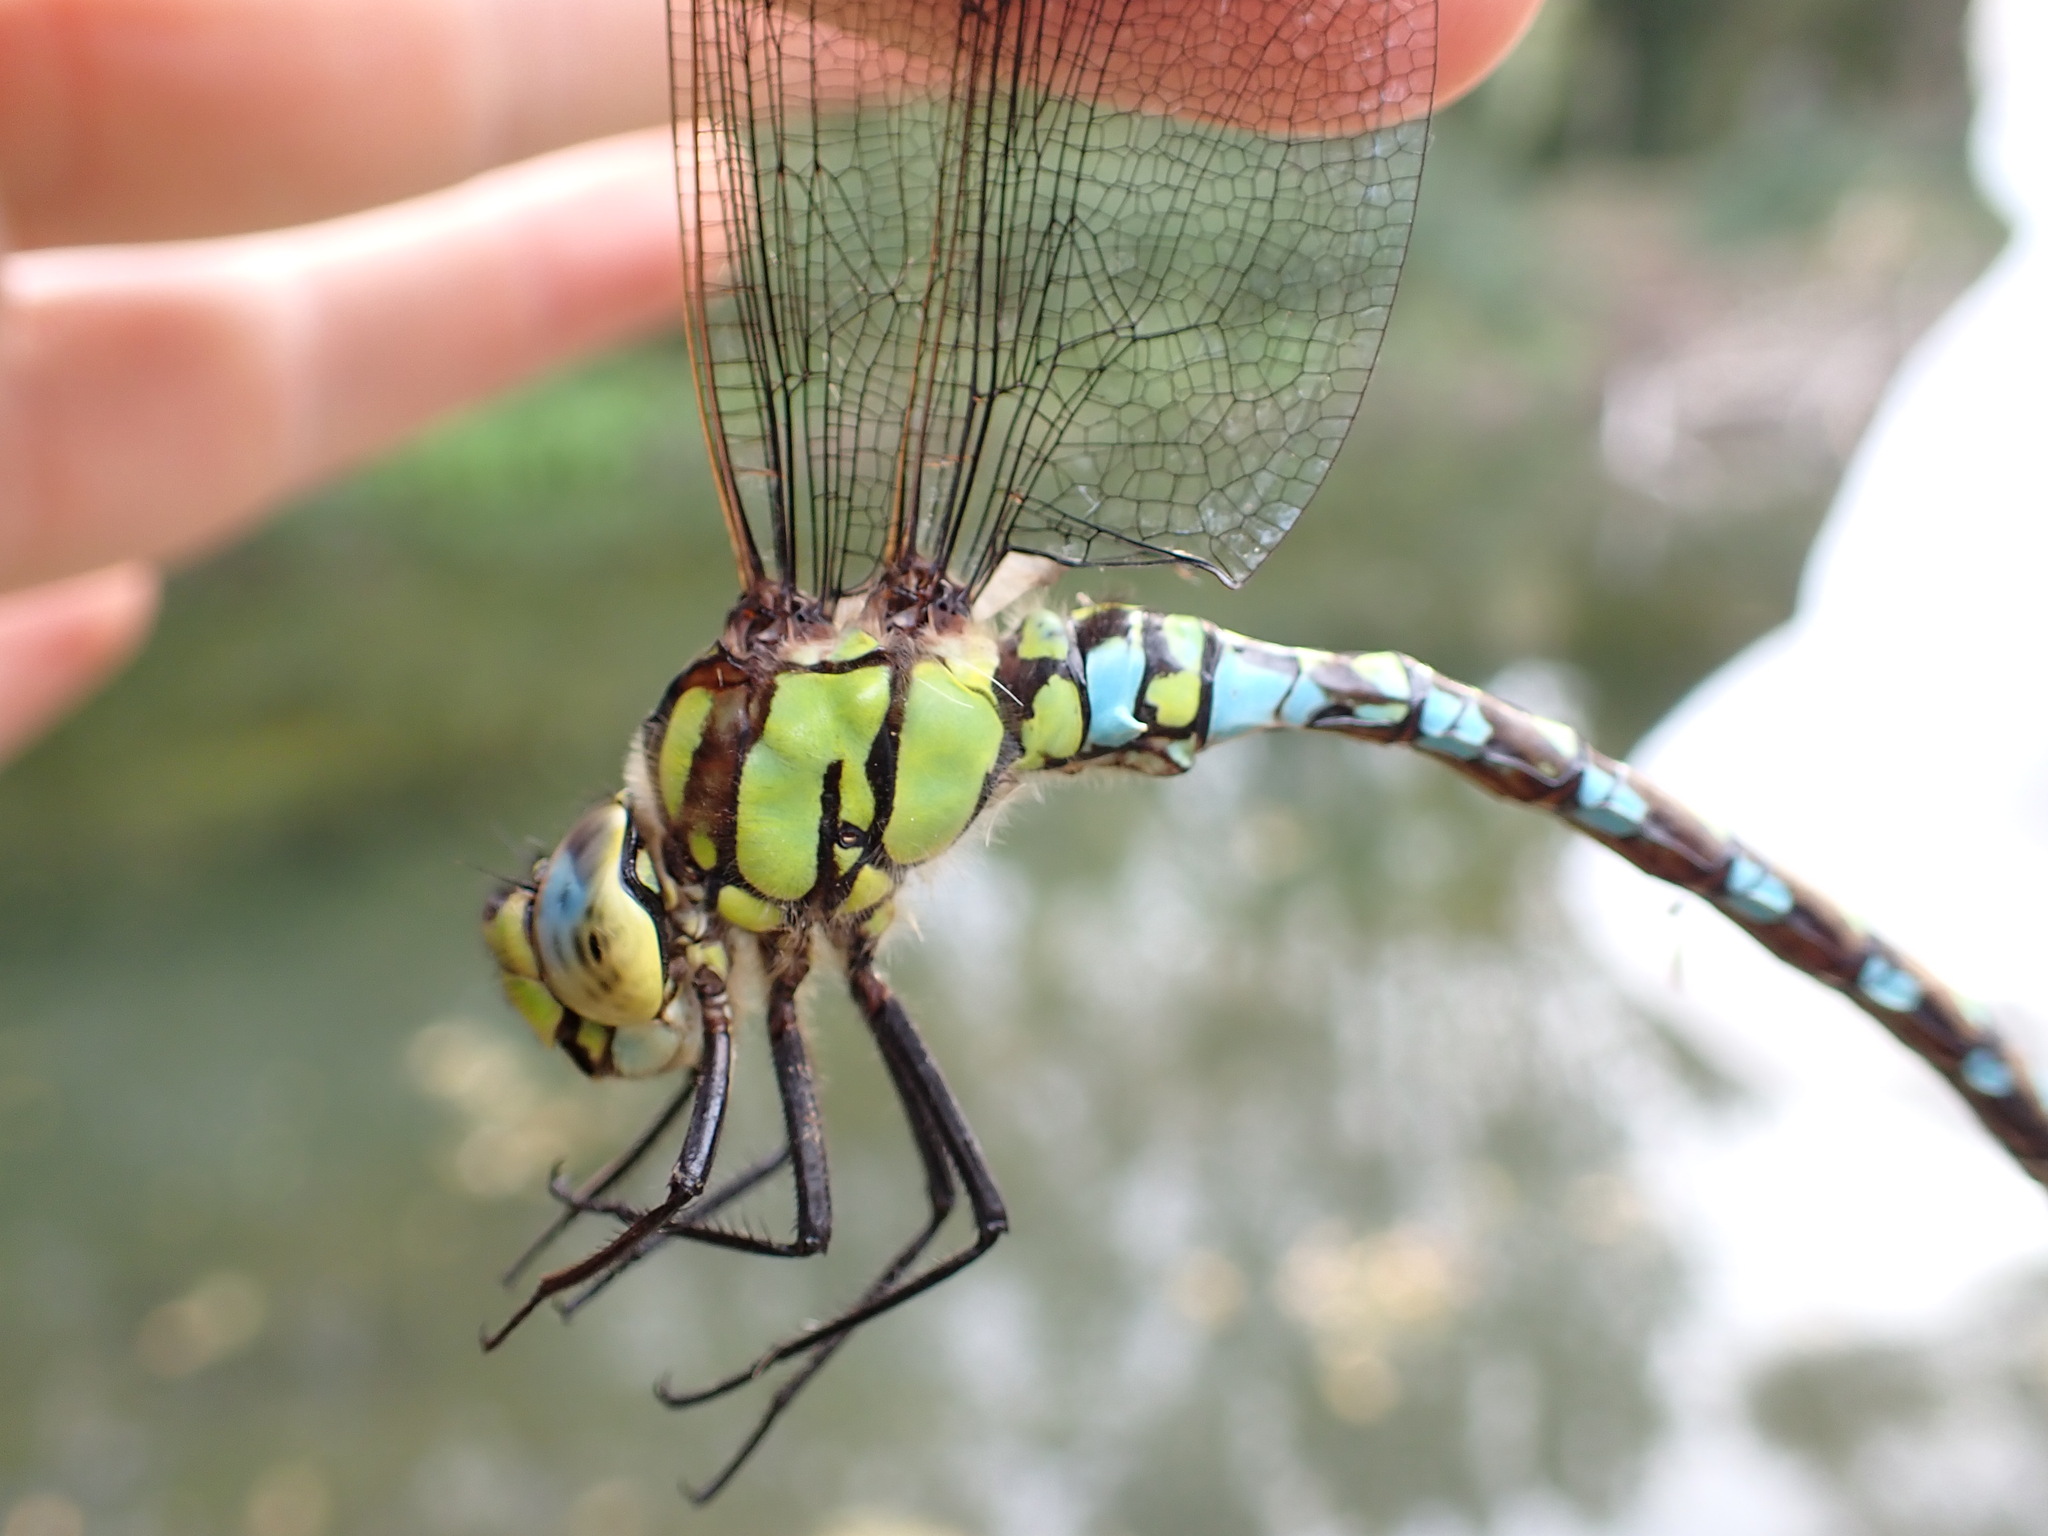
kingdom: Animalia
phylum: Arthropoda
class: Insecta
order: Odonata
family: Aeshnidae
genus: Aeshna
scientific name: Aeshna cyanea
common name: Southern hawker
